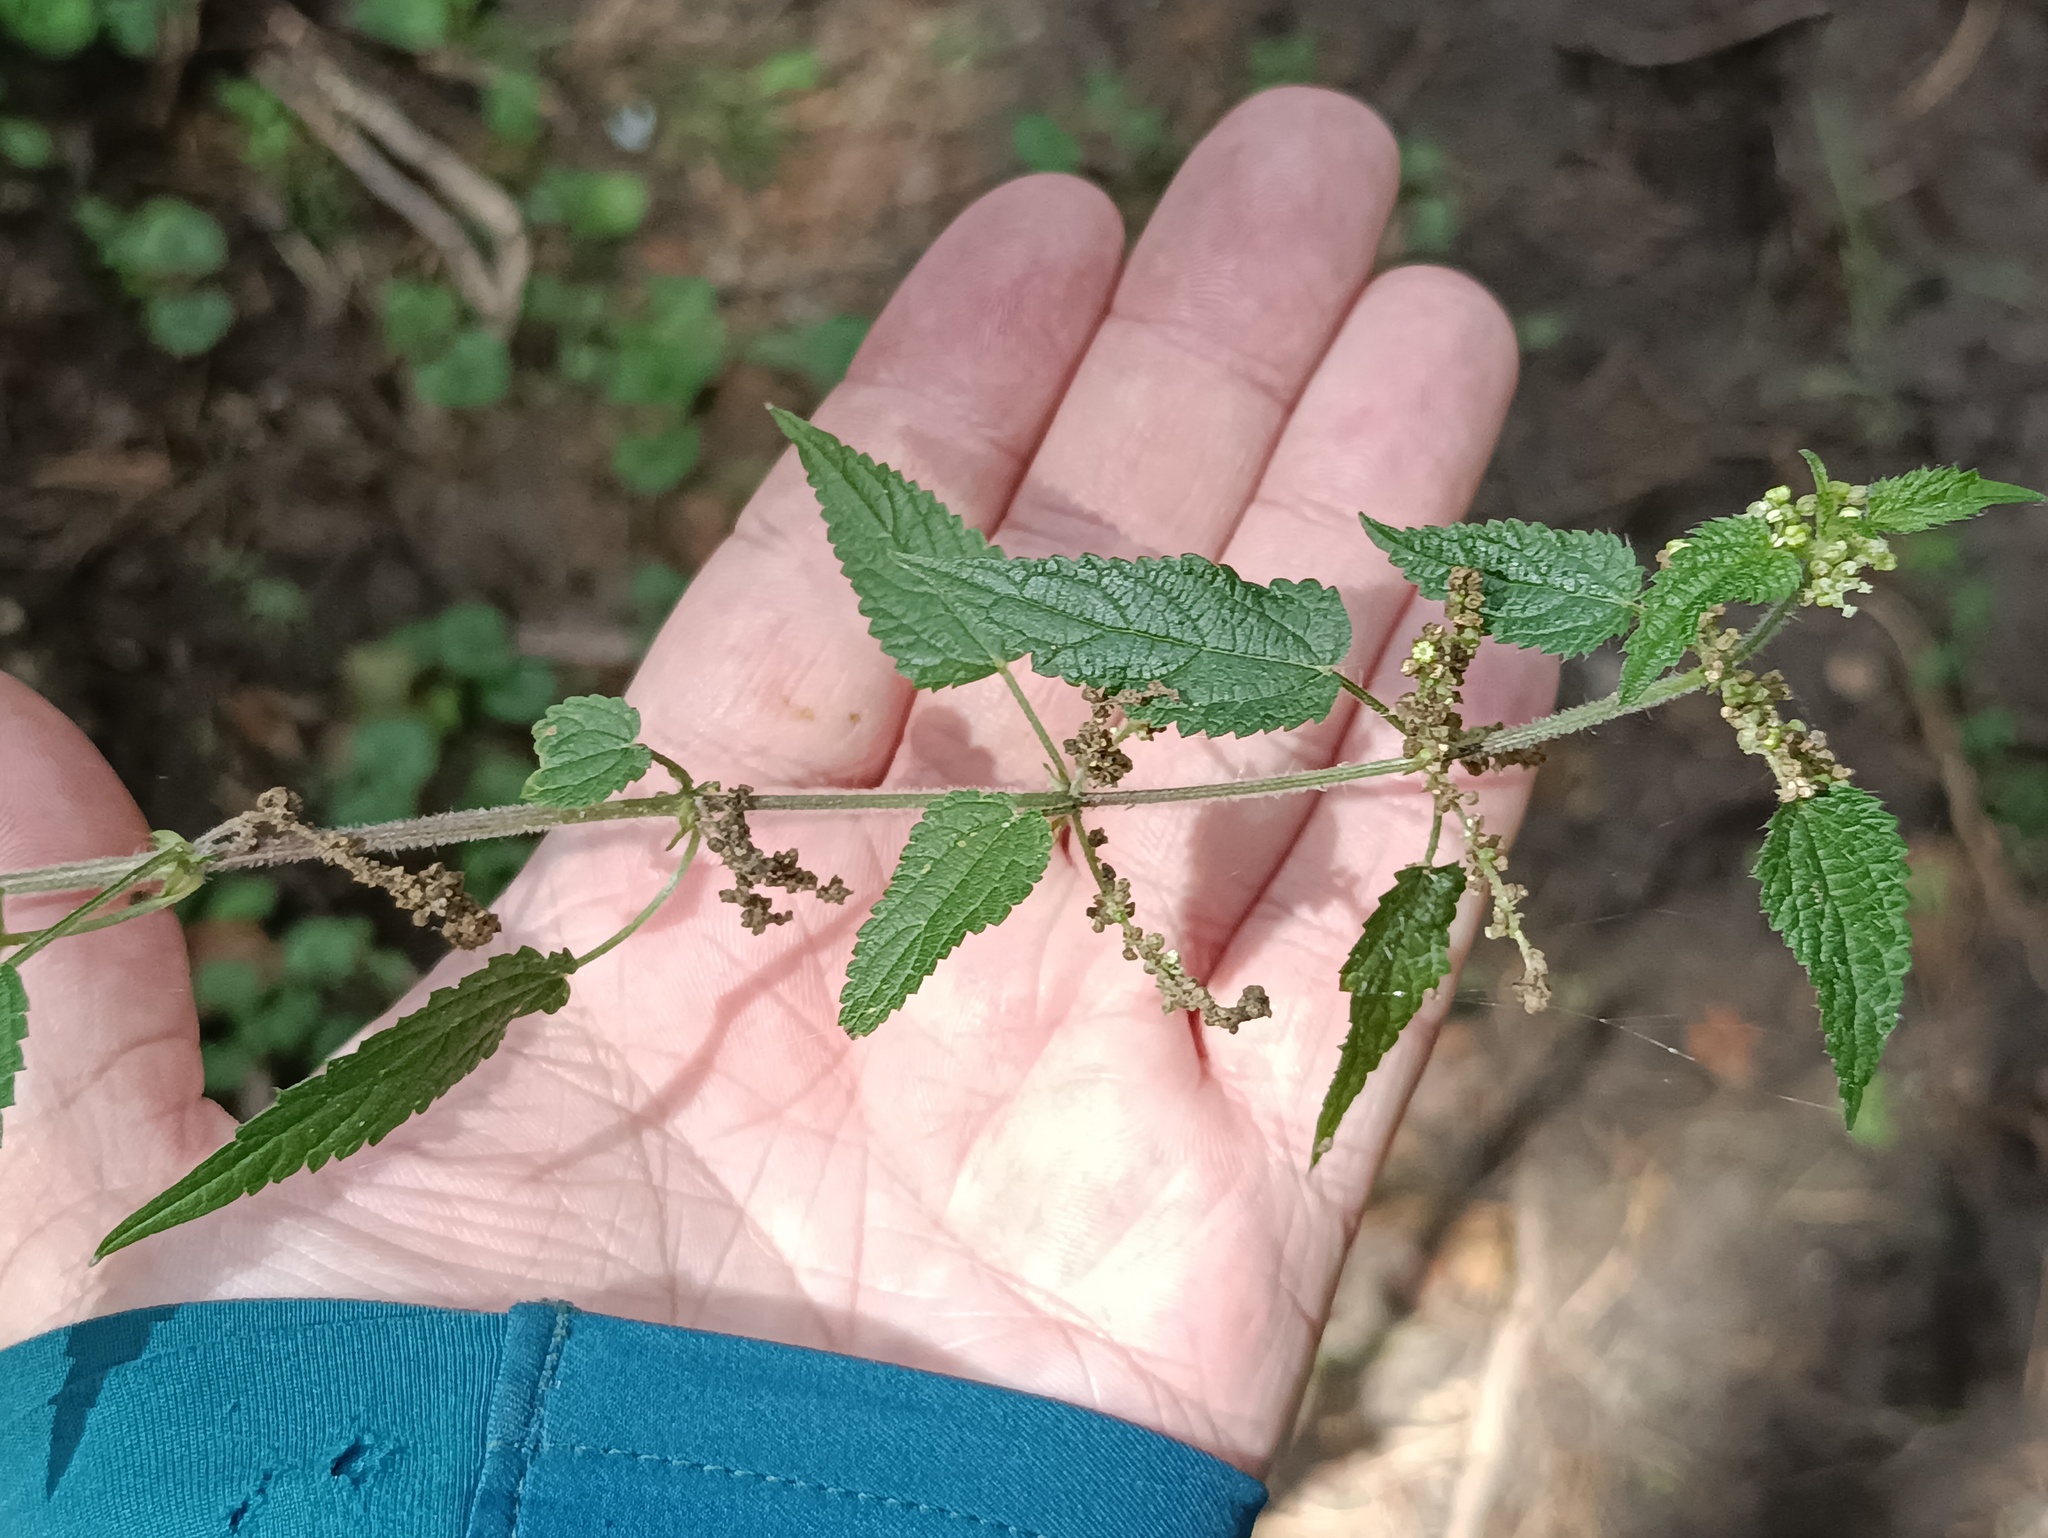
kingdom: Plantae
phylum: Tracheophyta
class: Magnoliopsida
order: Rosales
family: Urticaceae
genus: Urtica
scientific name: Urtica dioica
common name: Common nettle
